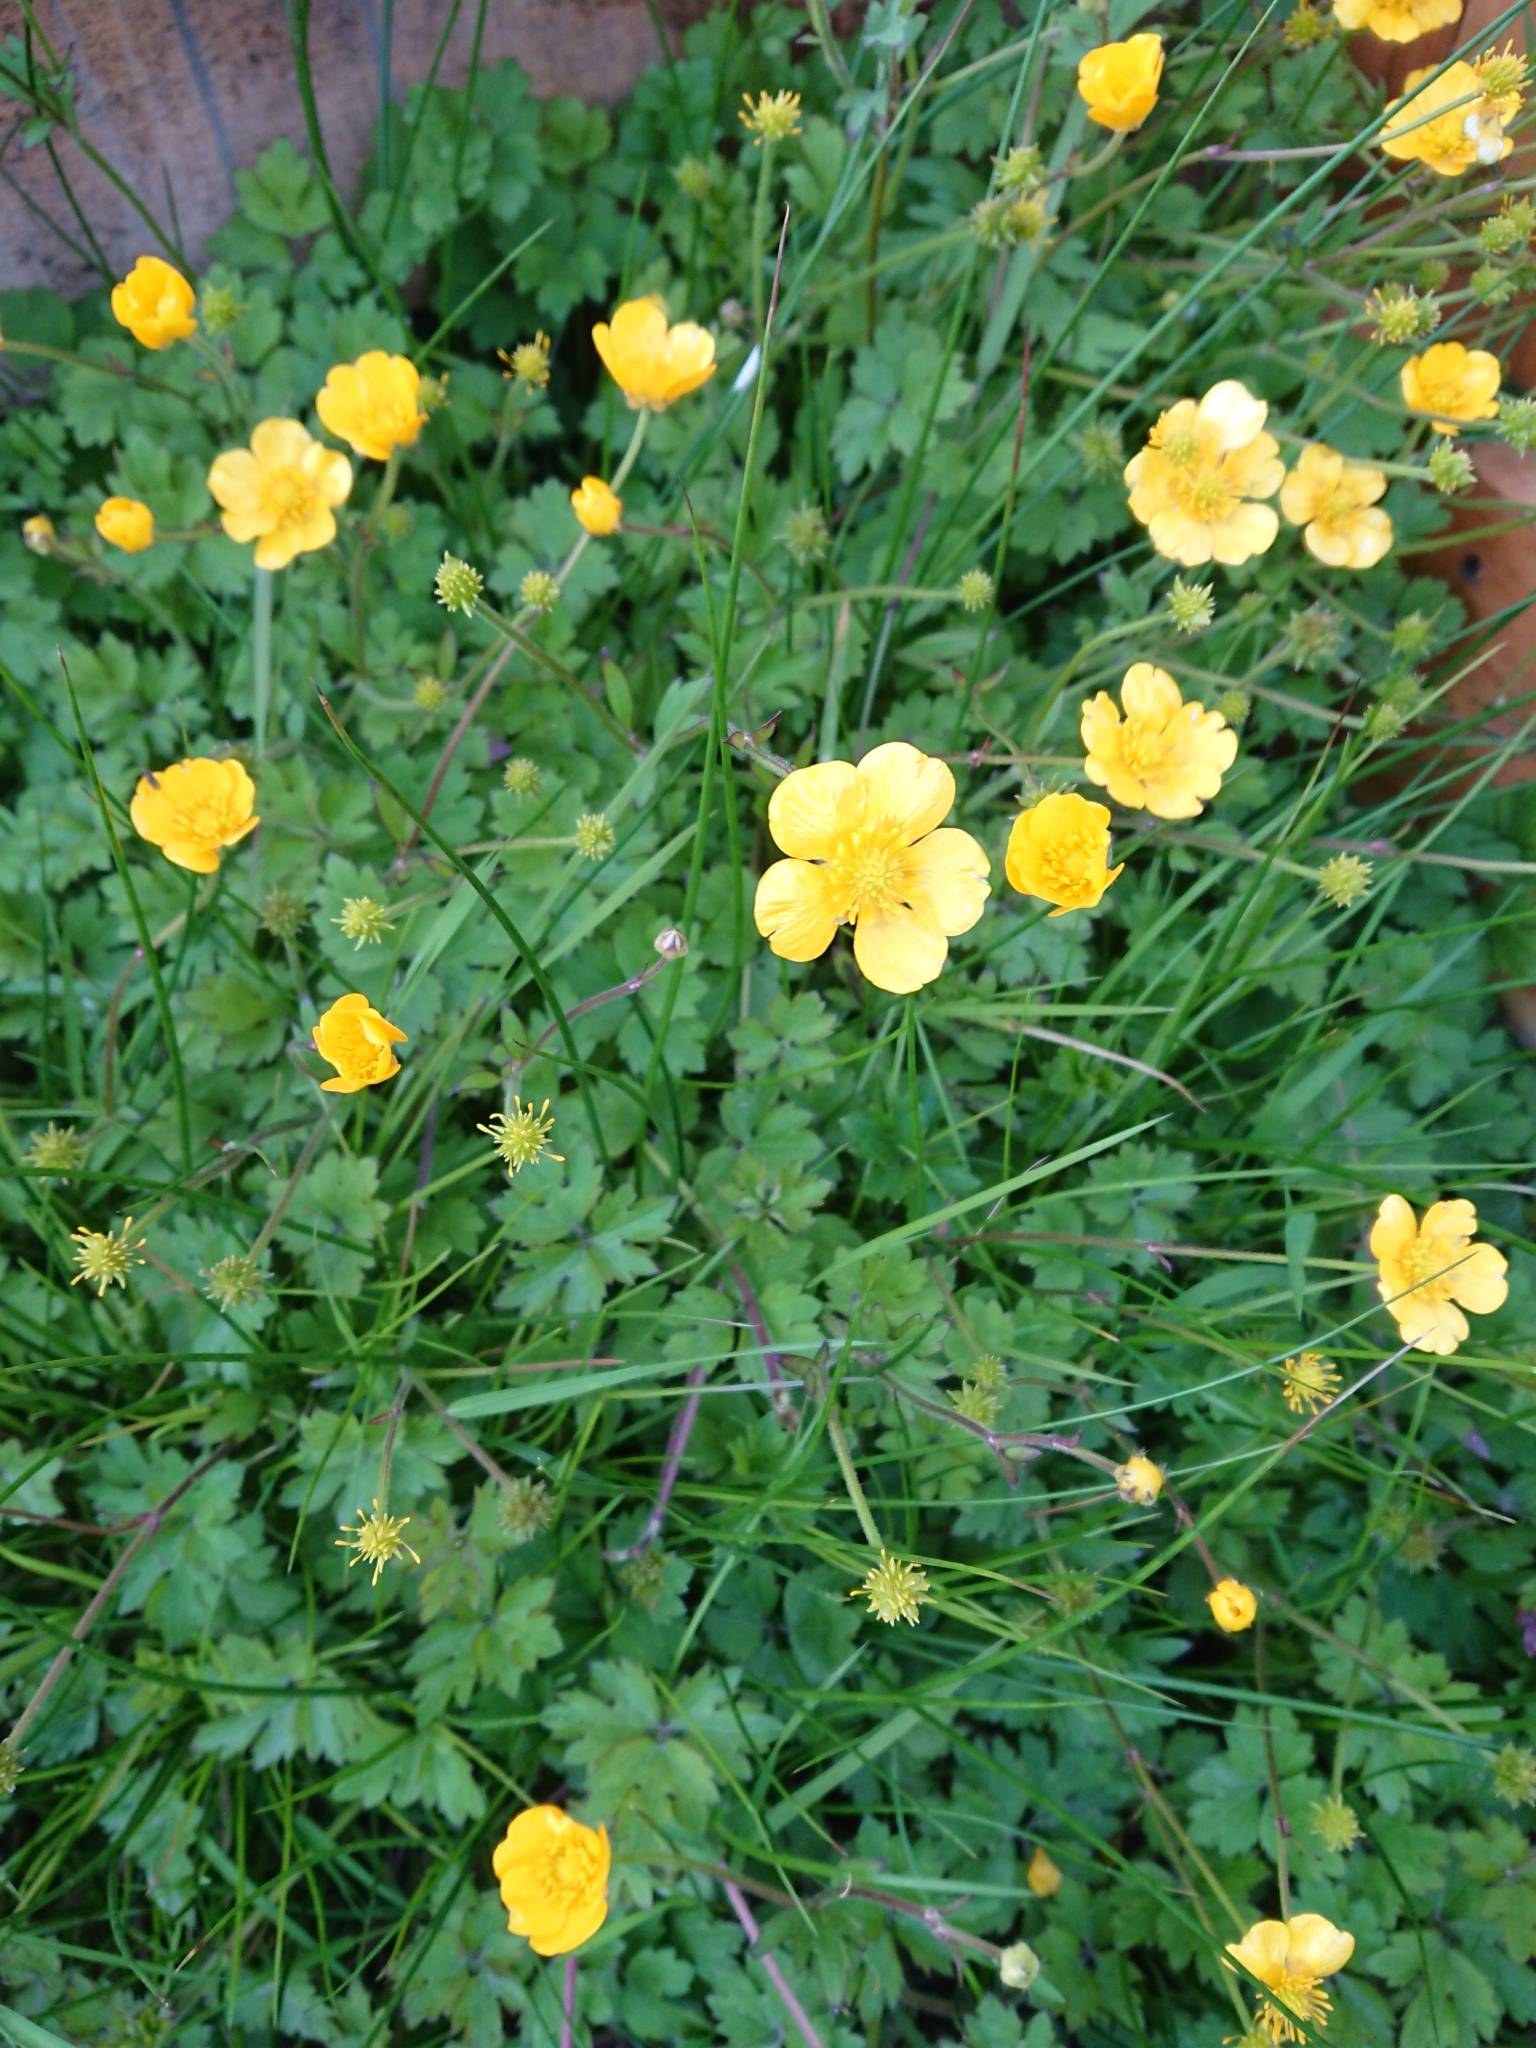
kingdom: Plantae
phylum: Tracheophyta
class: Magnoliopsida
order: Ranunculales
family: Ranunculaceae
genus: Ranunculus
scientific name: Ranunculus repens
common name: Creeping buttercup
